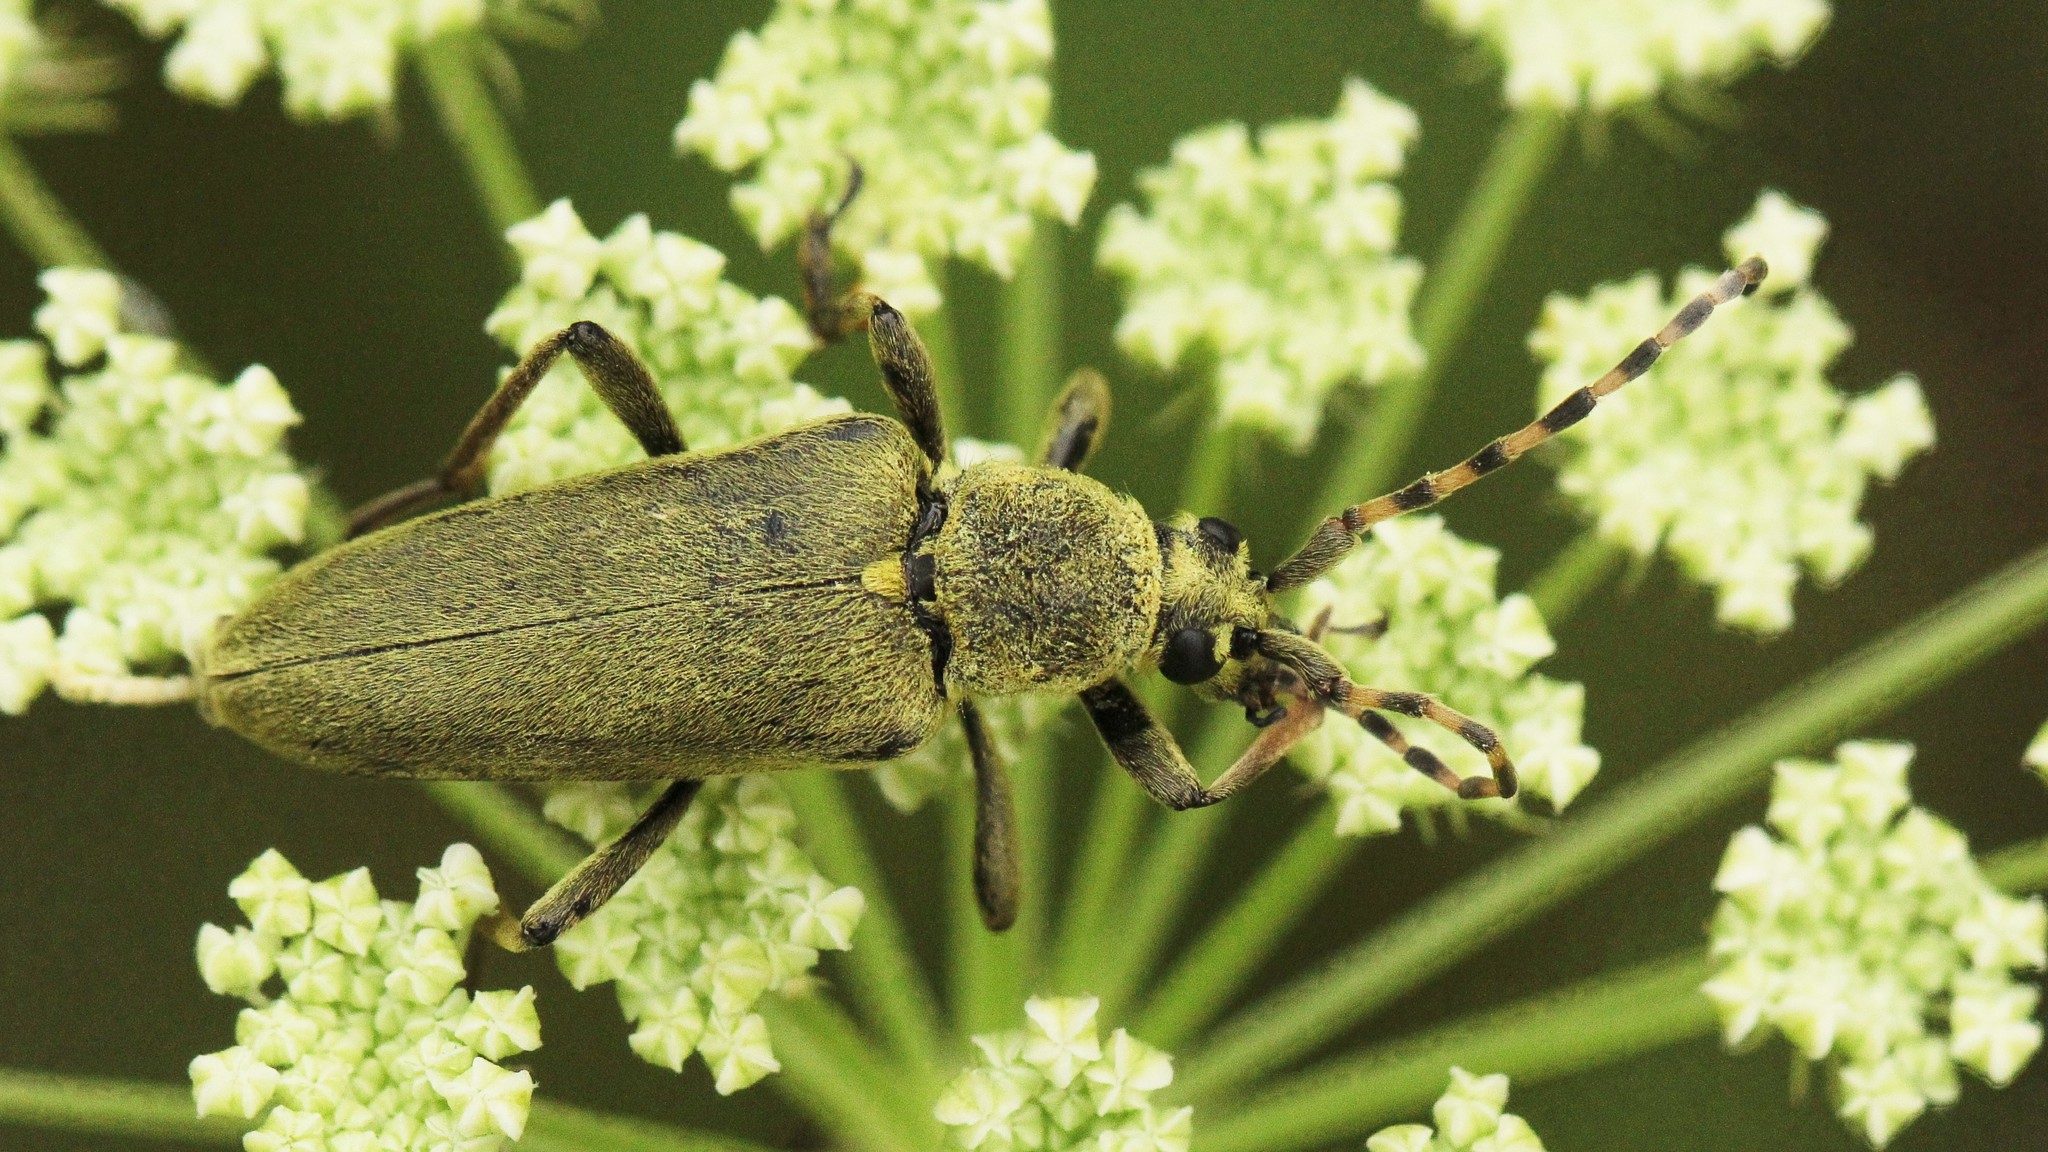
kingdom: Animalia
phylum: Arthropoda
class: Insecta
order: Coleoptera
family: Cerambycidae
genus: Lepturobosca
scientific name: Lepturobosca virens
